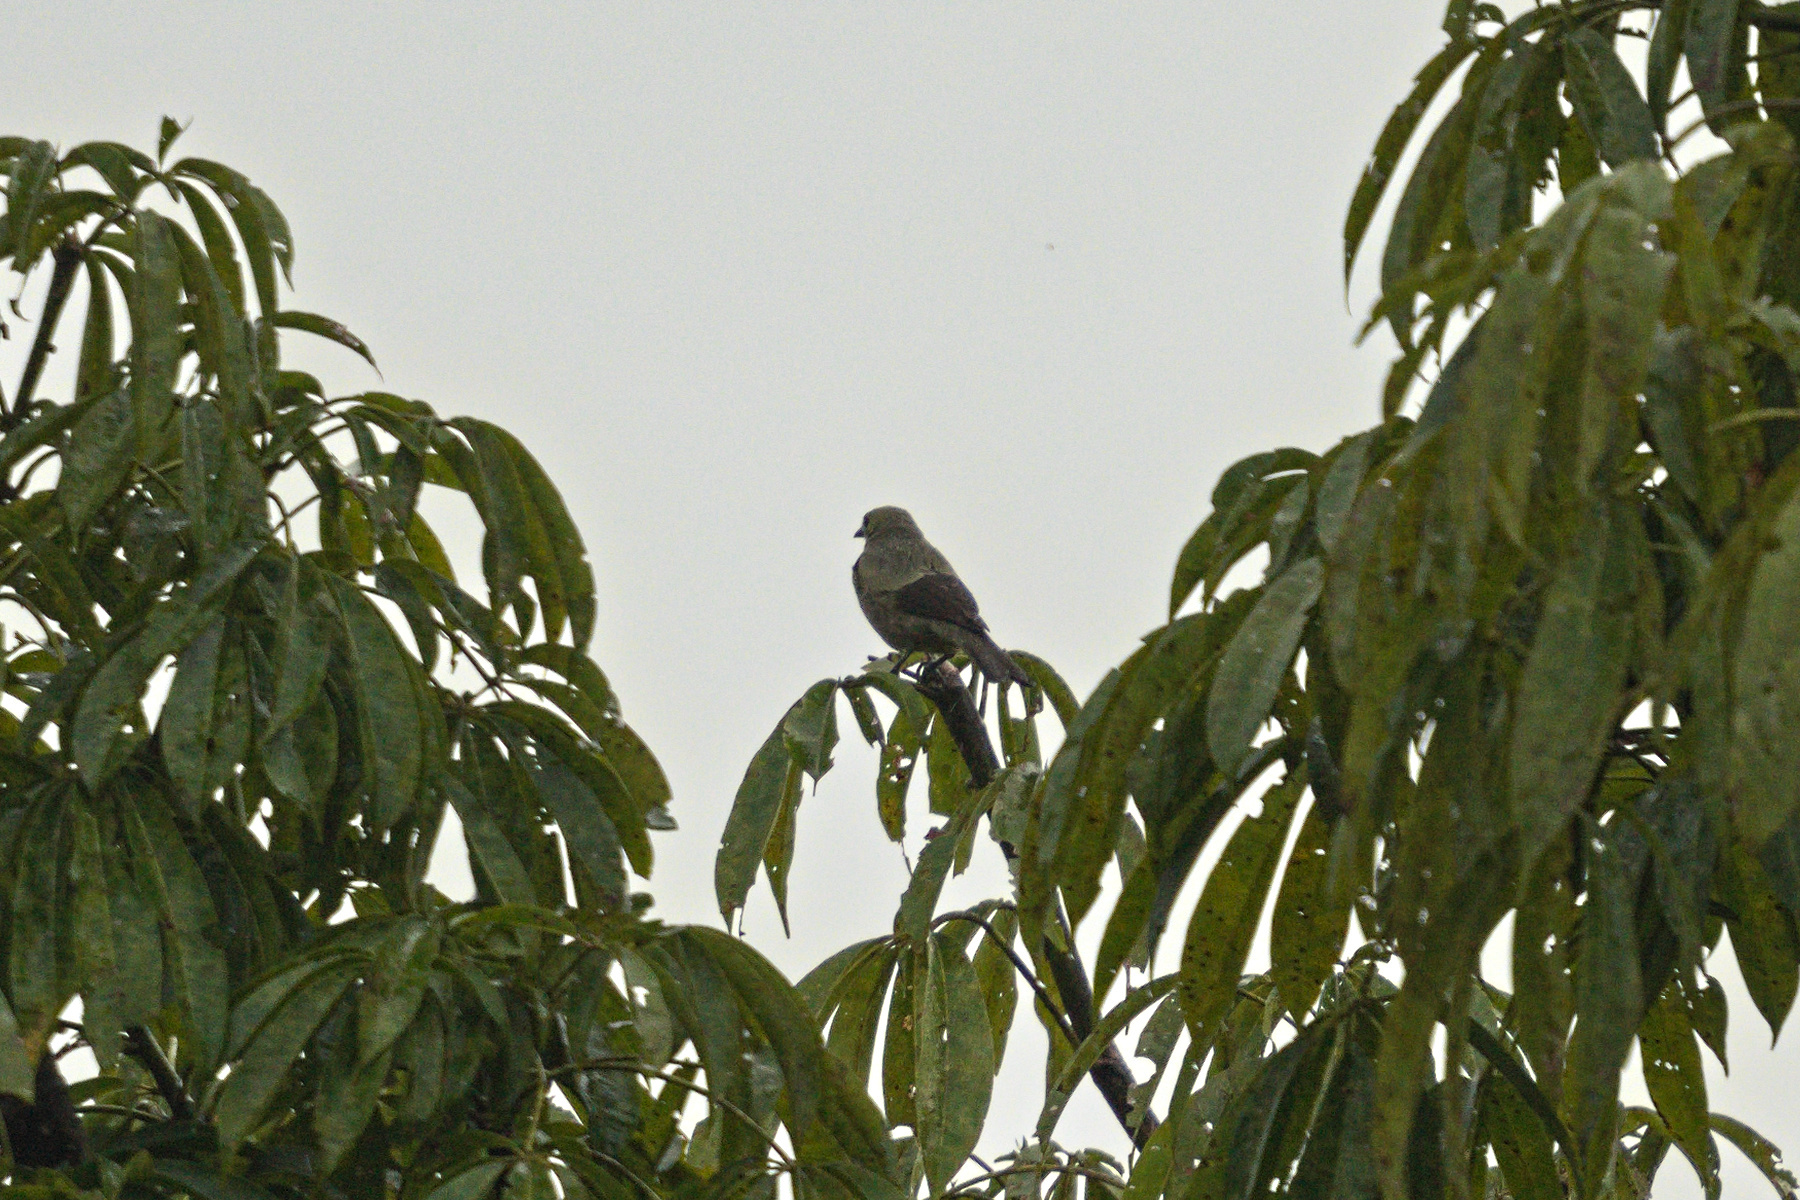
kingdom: Animalia
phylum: Chordata
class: Aves
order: Passeriformes
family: Thraupidae
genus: Thraupis
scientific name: Thraupis palmarum
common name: Palm tanager
